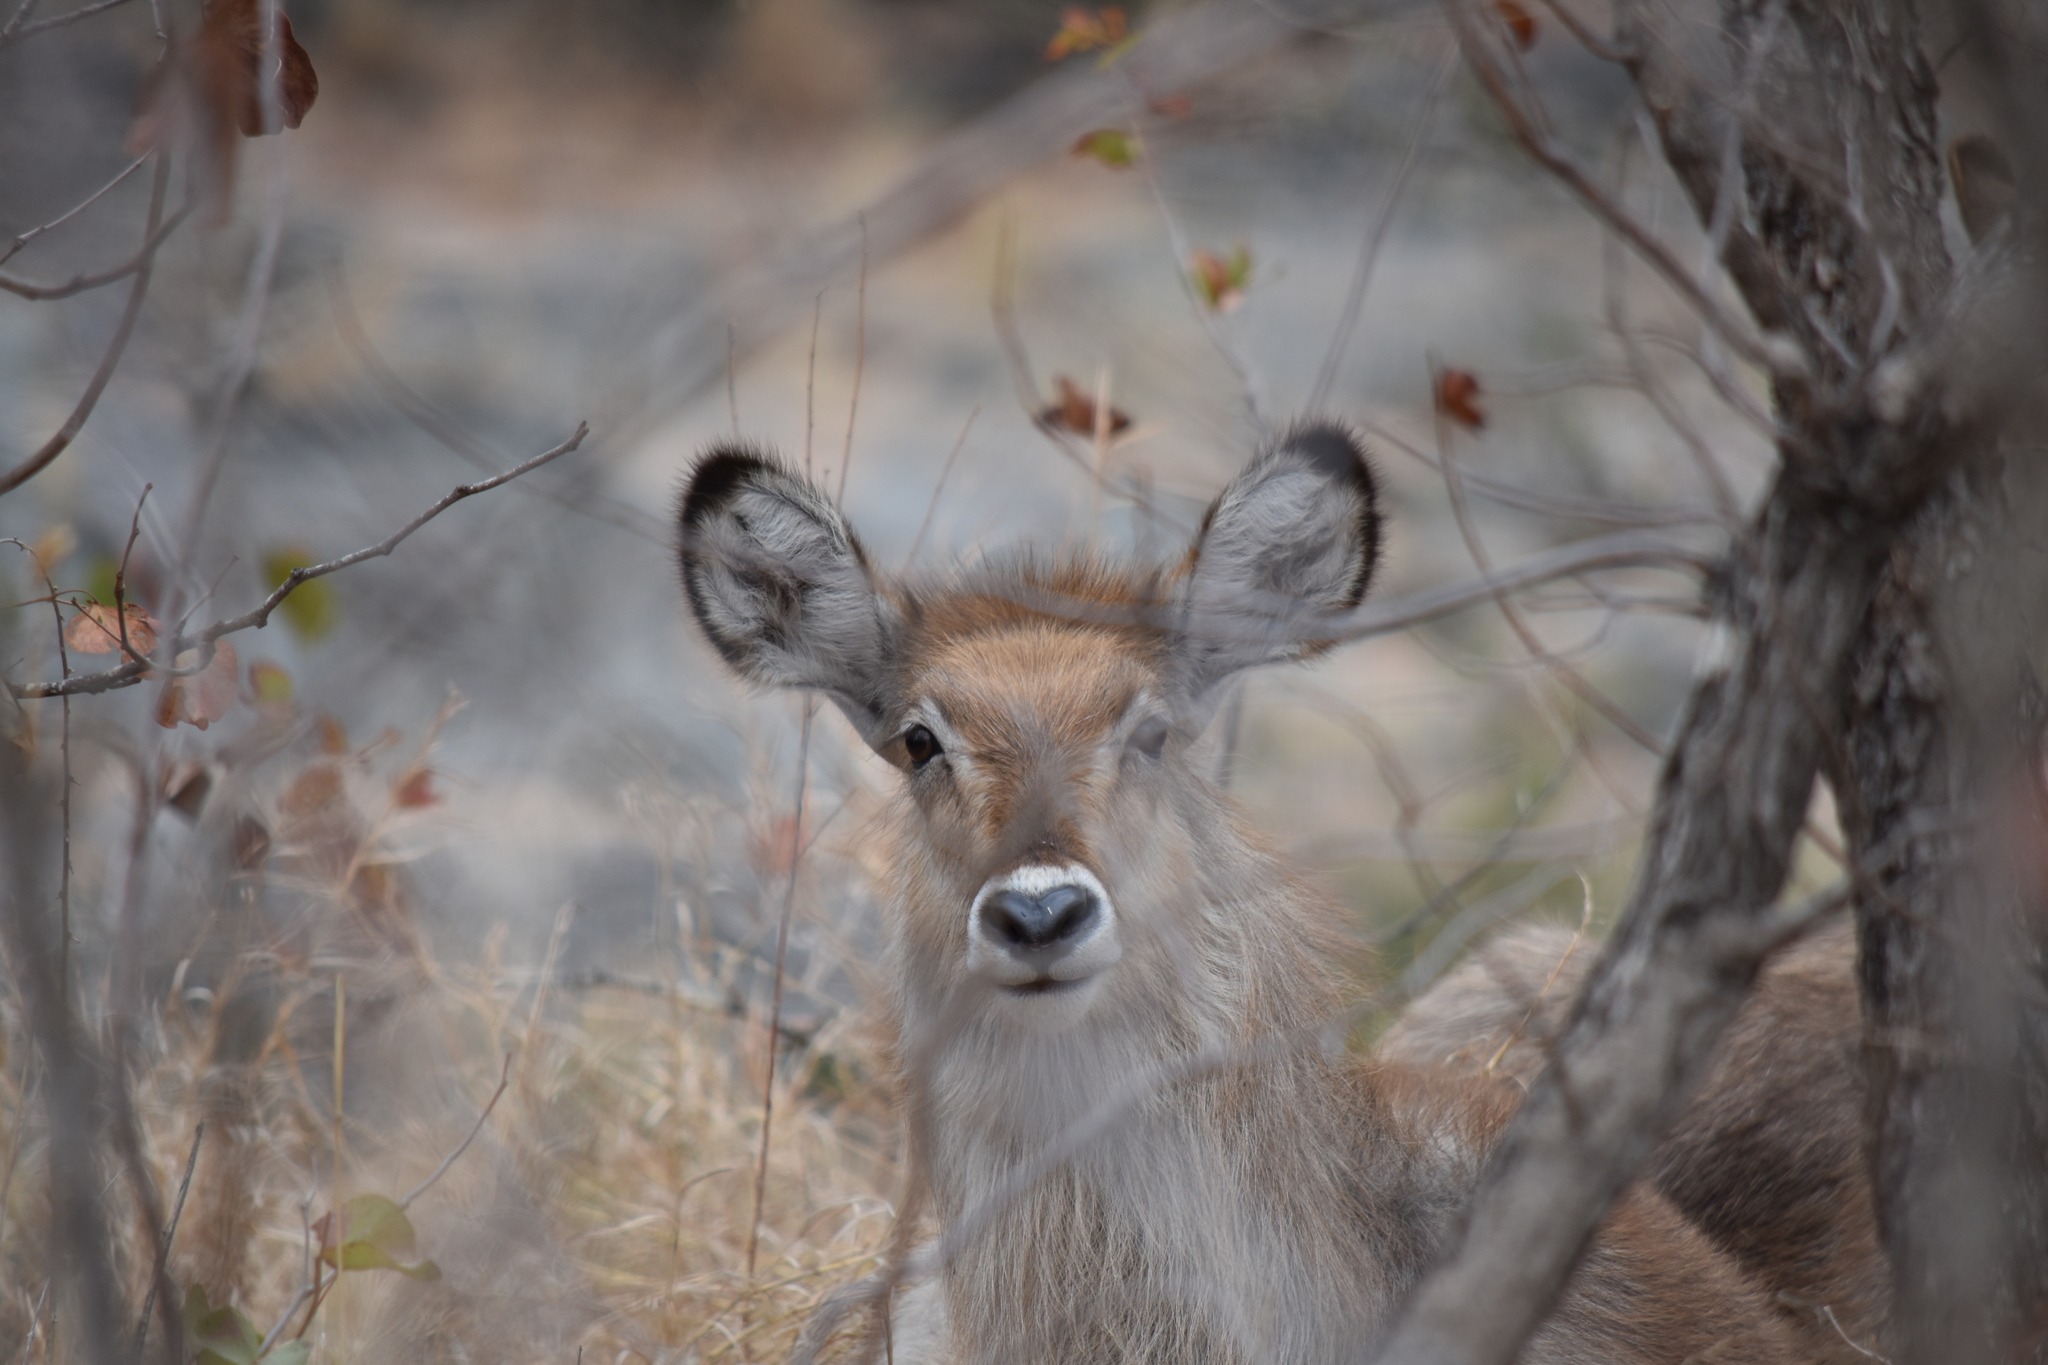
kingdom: Animalia
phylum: Chordata
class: Mammalia
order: Artiodactyla
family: Bovidae
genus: Kobus
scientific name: Kobus ellipsiprymnus
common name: Waterbuck
